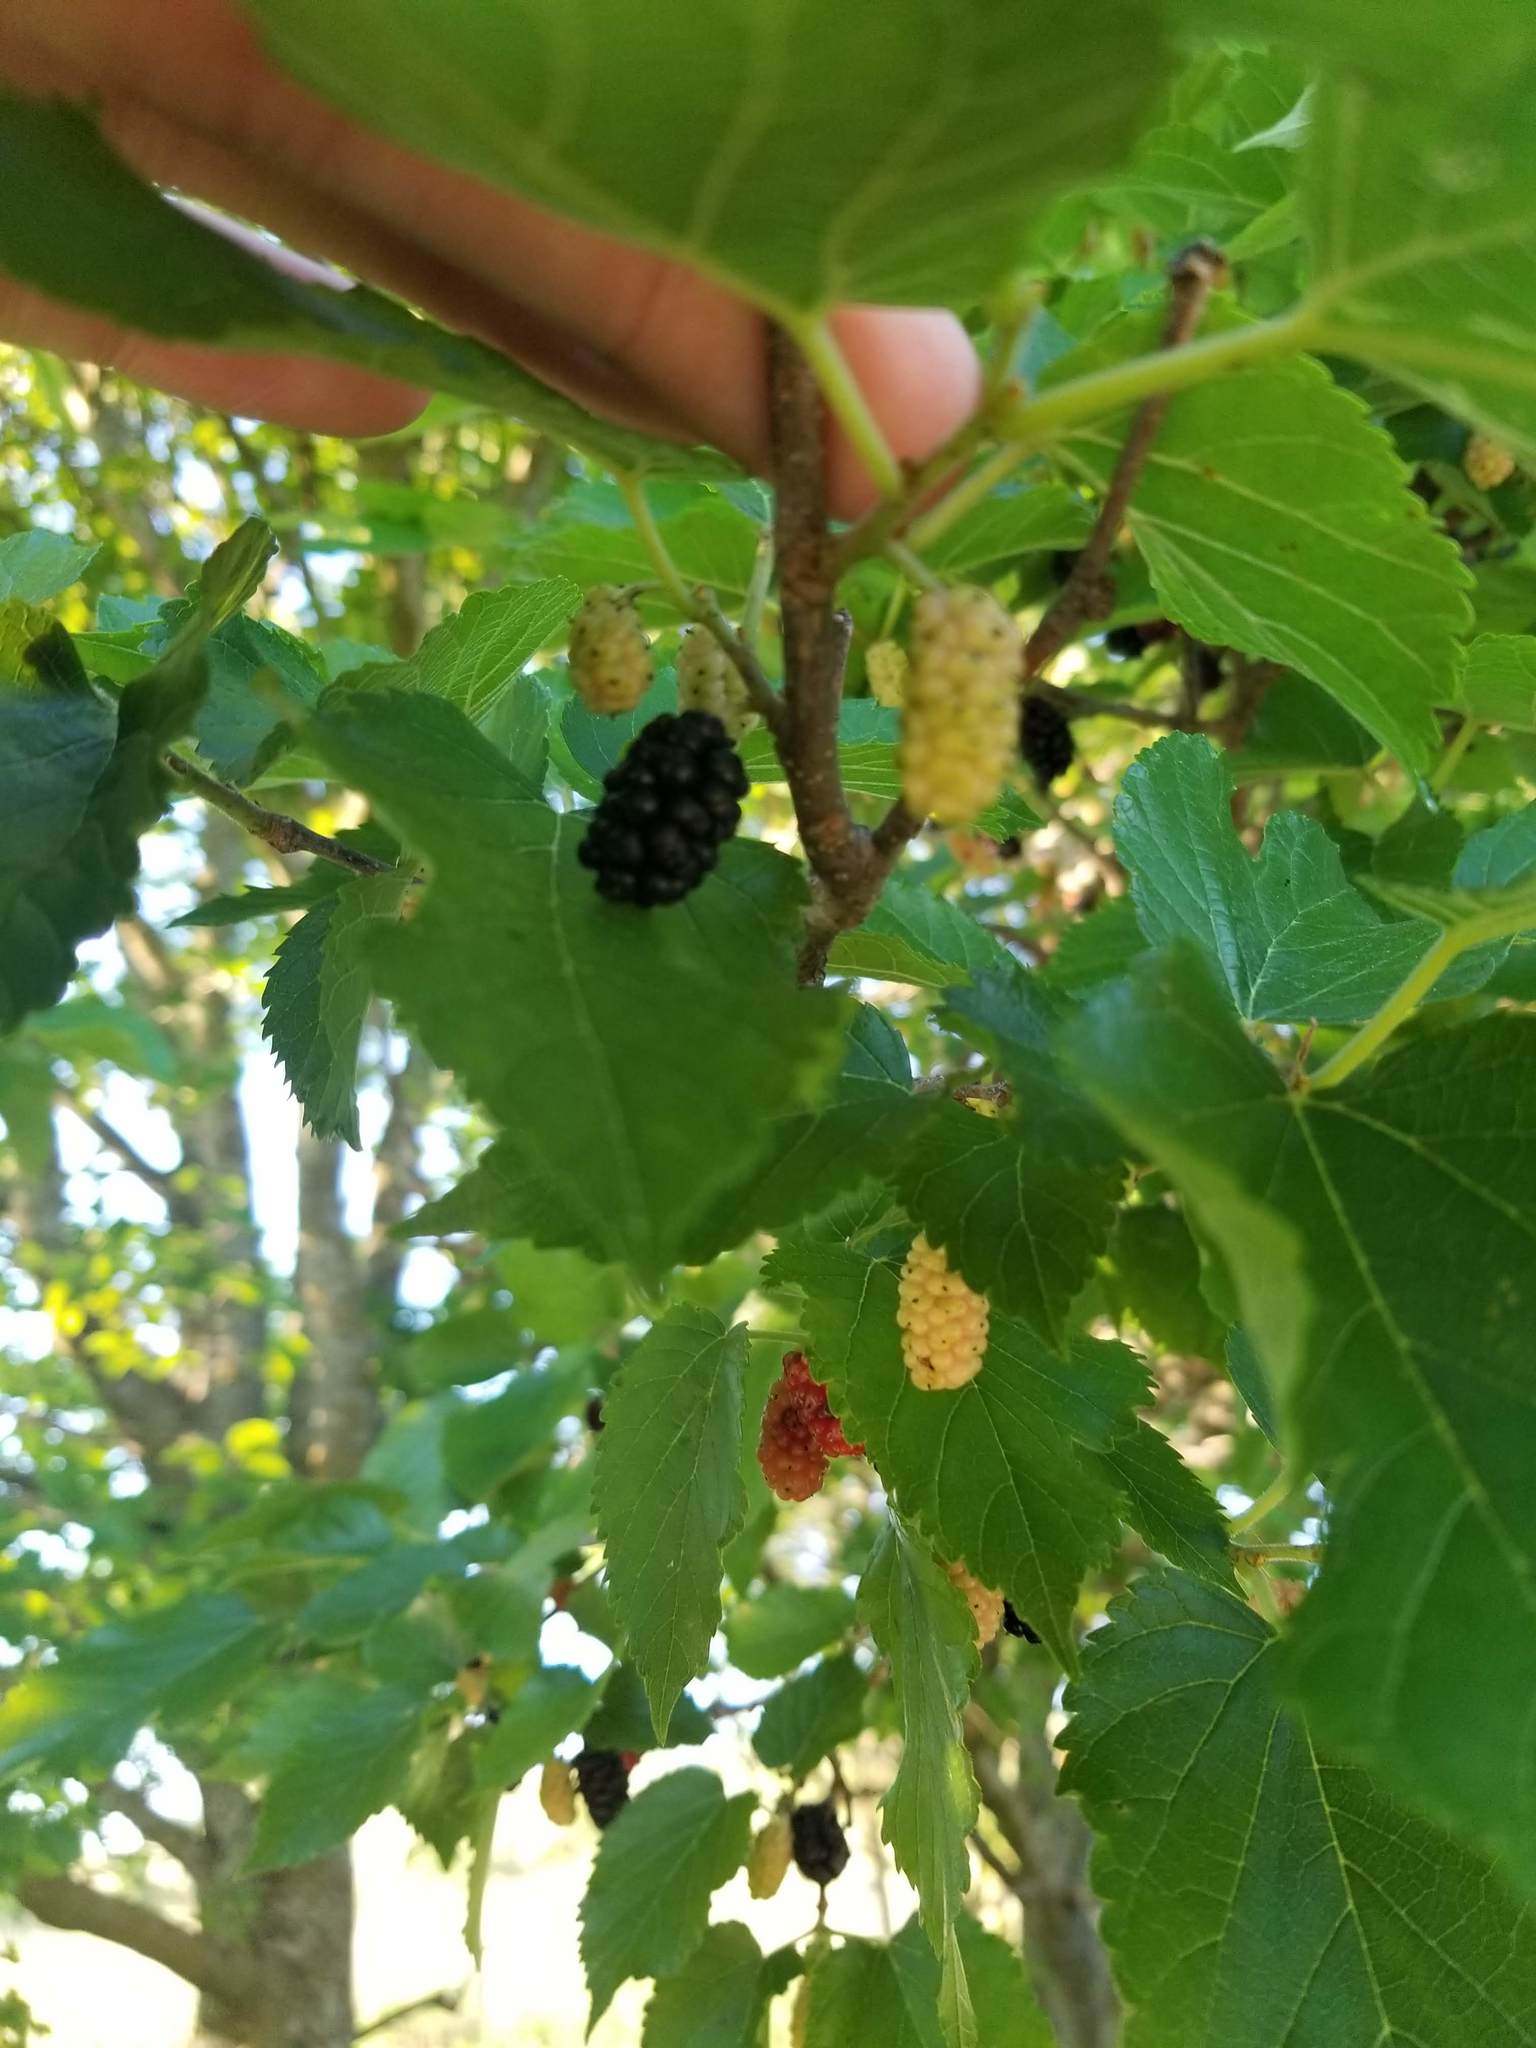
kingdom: Plantae
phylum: Tracheophyta
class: Magnoliopsida
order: Rosales
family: Moraceae
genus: Morus
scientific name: Morus alba
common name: White mulberry
